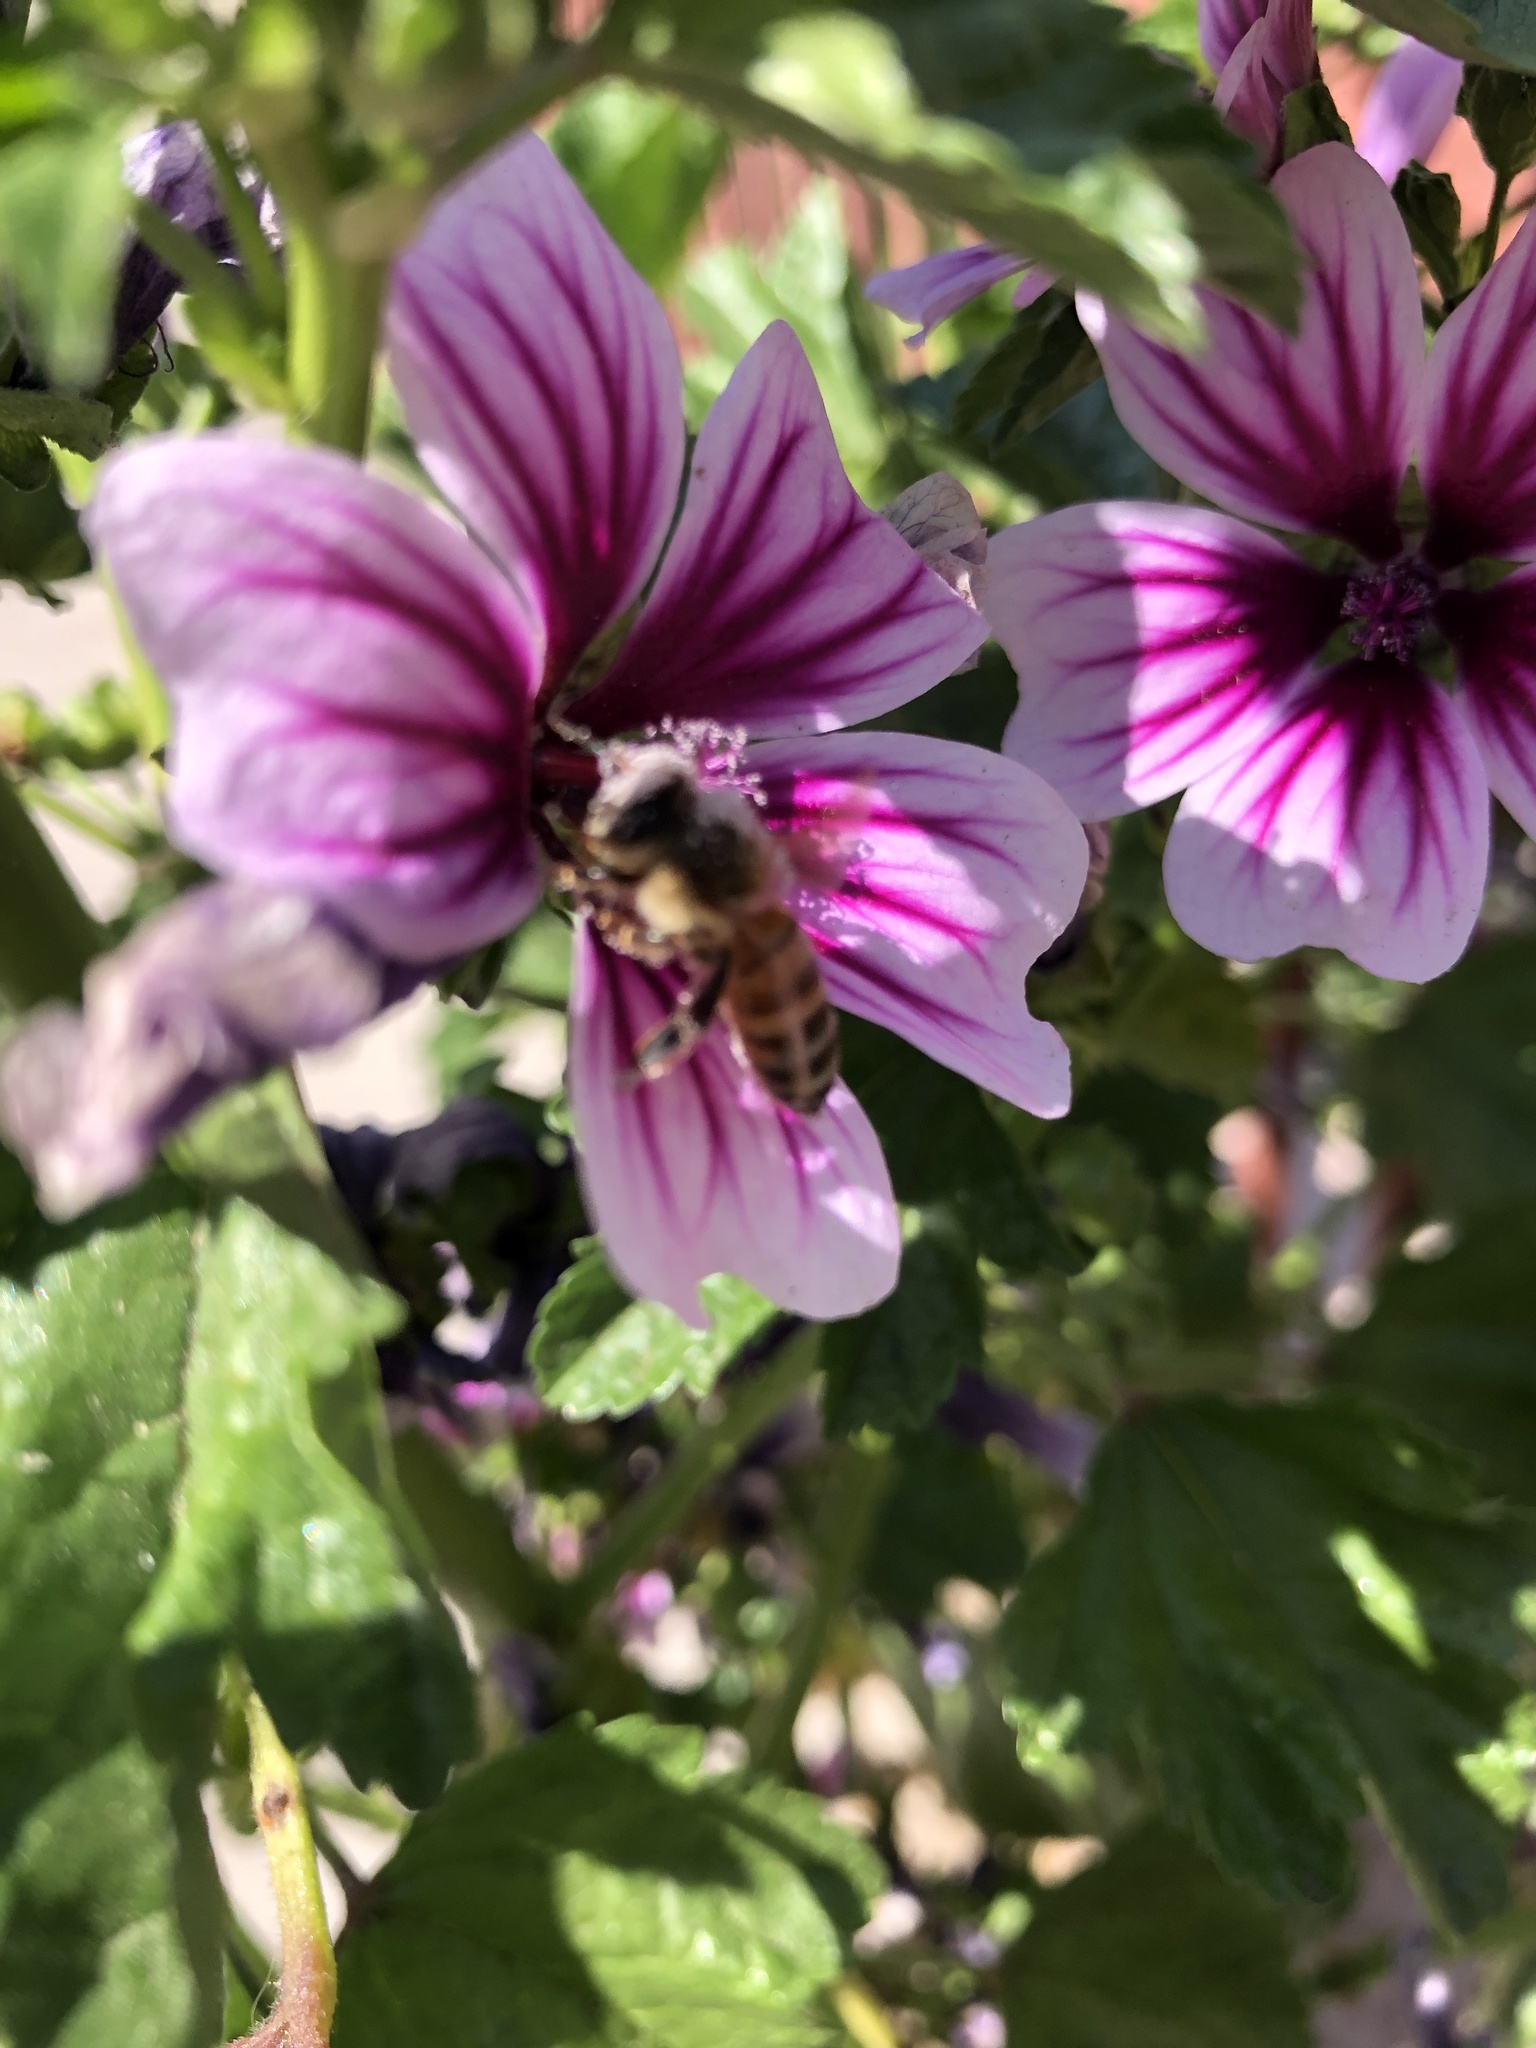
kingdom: Animalia
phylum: Arthropoda
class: Insecta
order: Hymenoptera
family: Apidae
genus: Apis
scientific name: Apis mellifera
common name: Honey bee
